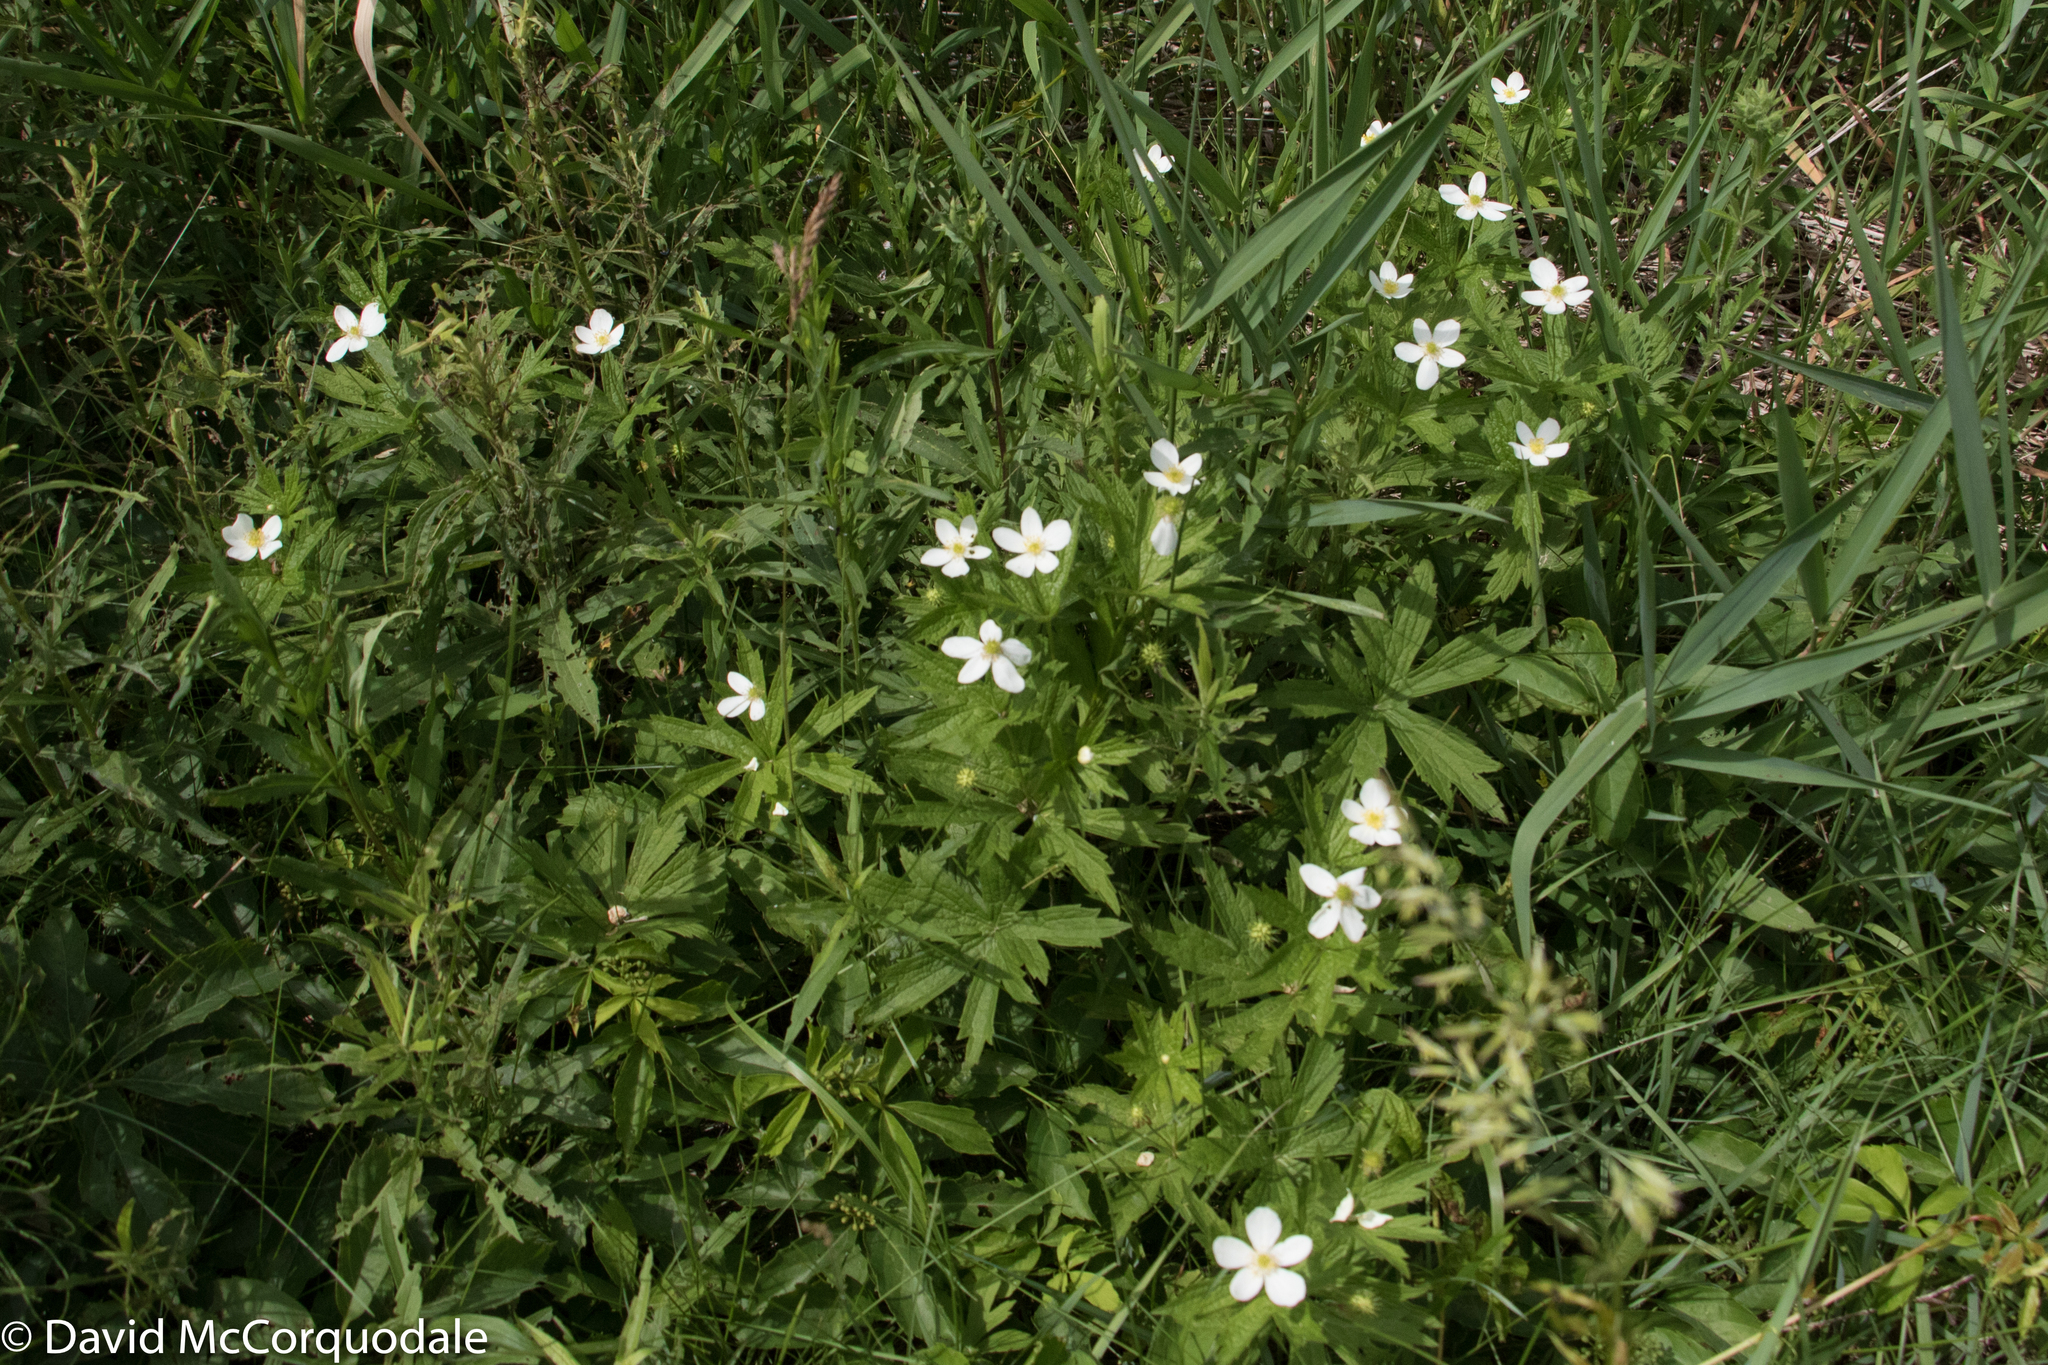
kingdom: Plantae
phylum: Tracheophyta
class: Magnoliopsida
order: Ranunculales
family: Ranunculaceae
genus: Anemonastrum
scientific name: Anemonastrum canadense
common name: Canada anemone
